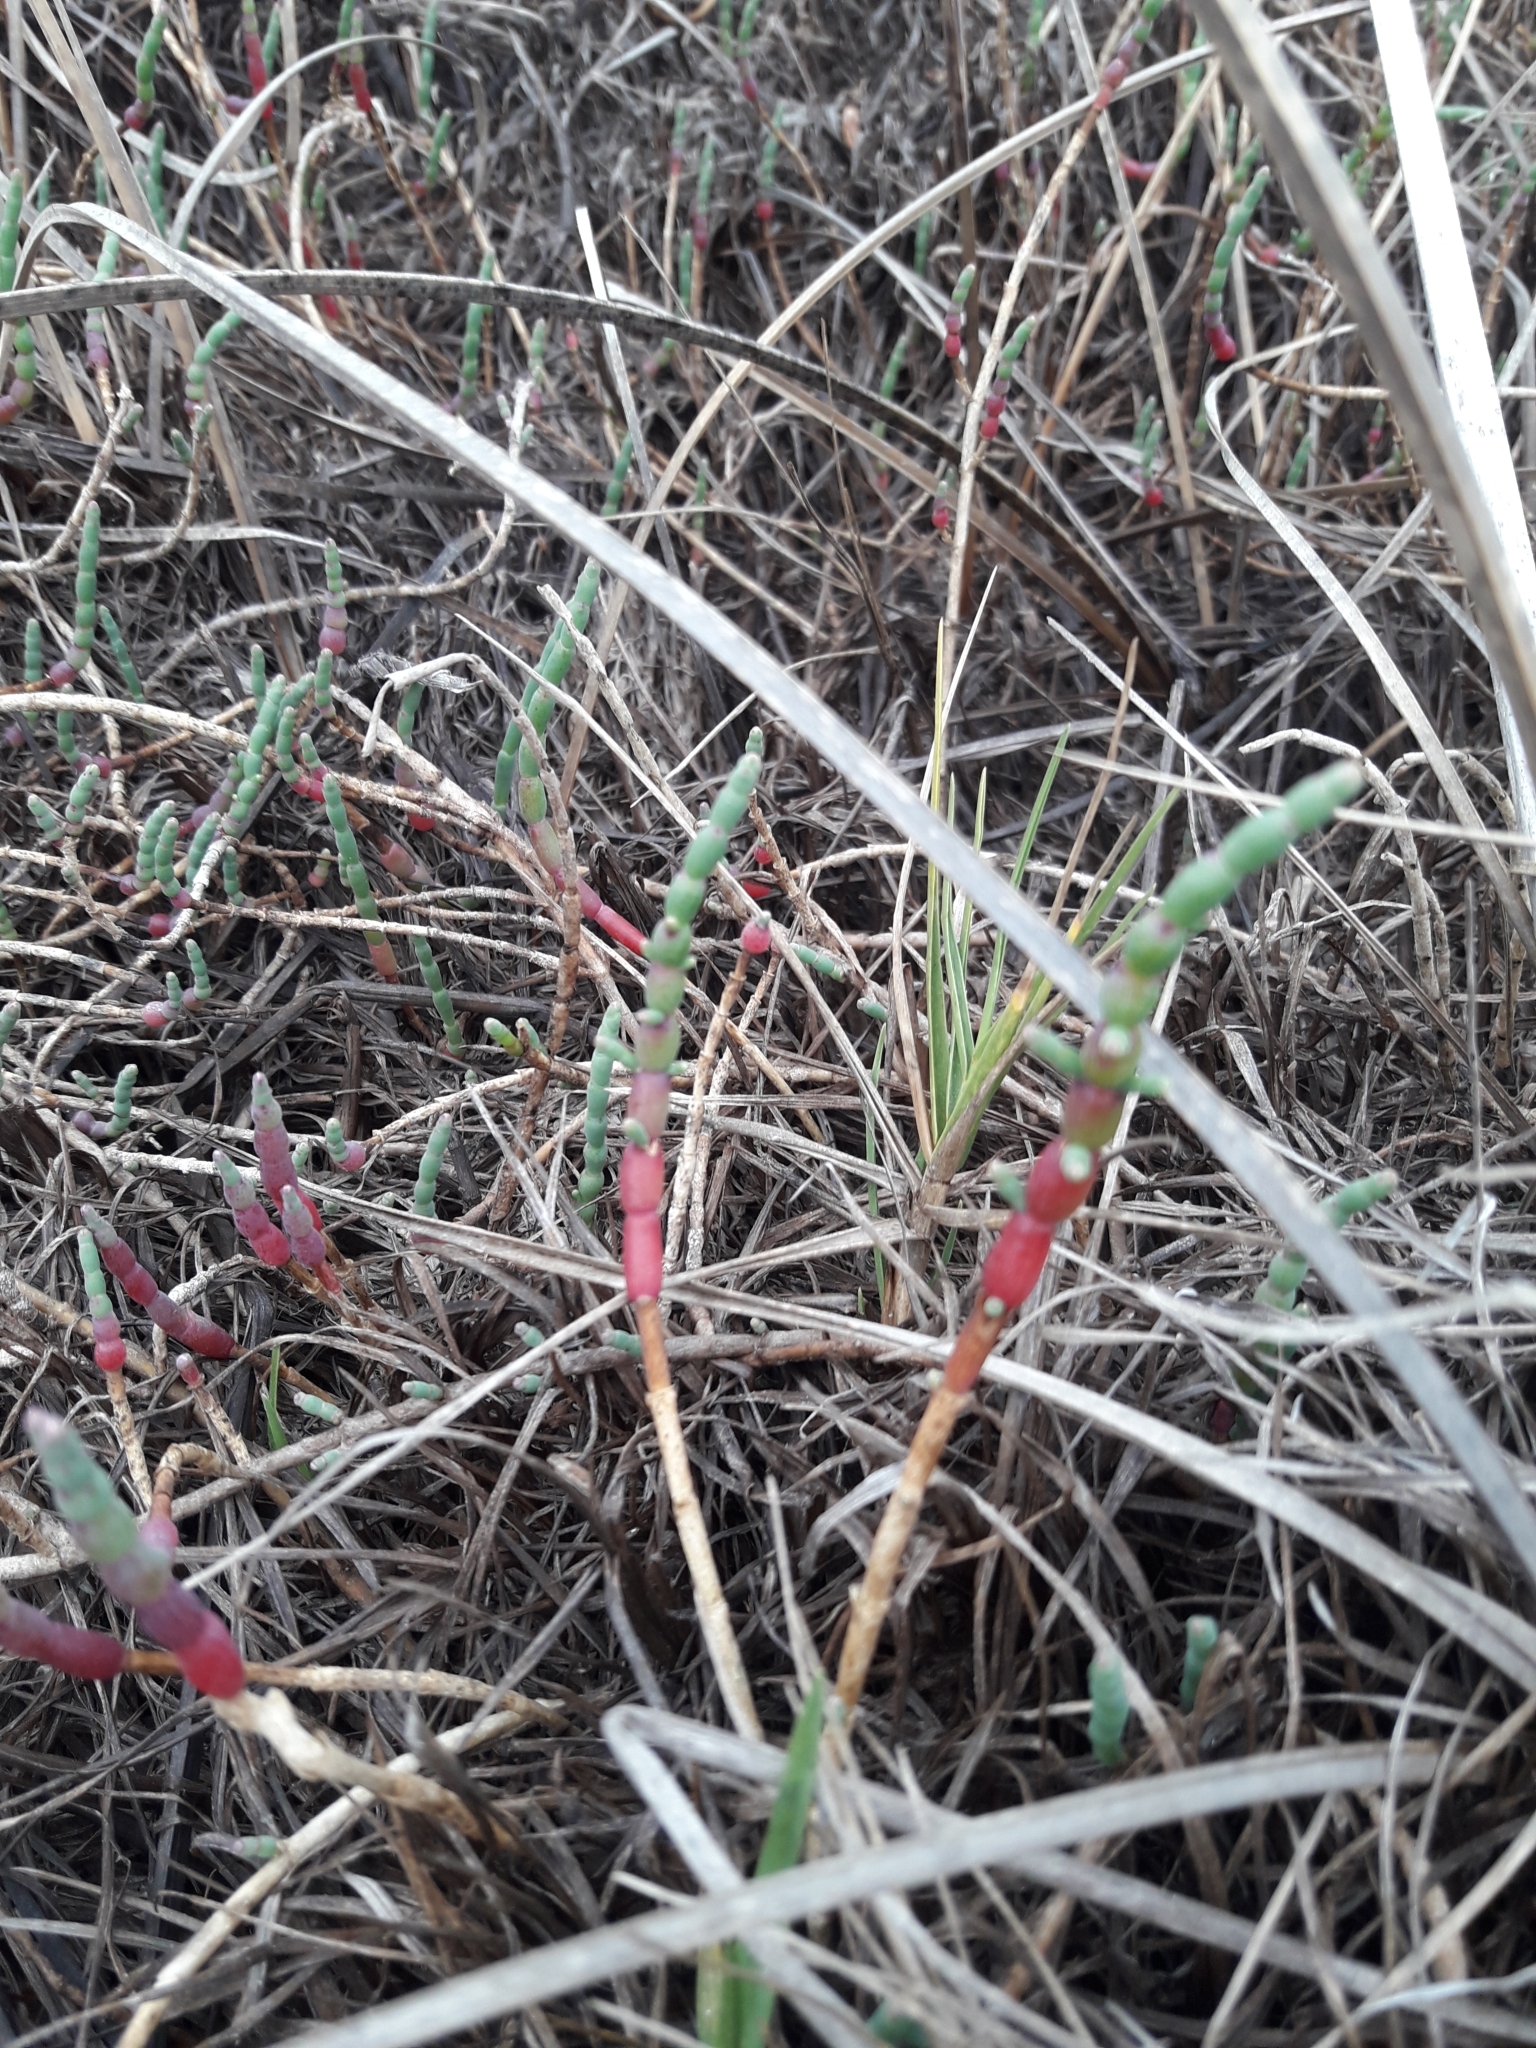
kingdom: Plantae
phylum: Tracheophyta
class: Magnoliopsida
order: Caryophyllales
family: Amaranthaceae
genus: Salicornia
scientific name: Salicornia neei
